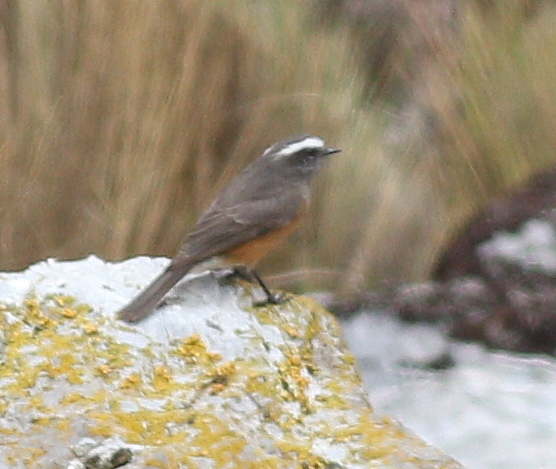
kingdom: Animalia
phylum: Chordata
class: Aves
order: Passeriformes
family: Tyrannidae
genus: Ochthoeca
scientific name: Ochthoeca oenanthoides
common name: D'orbigny's chat-tyrant
